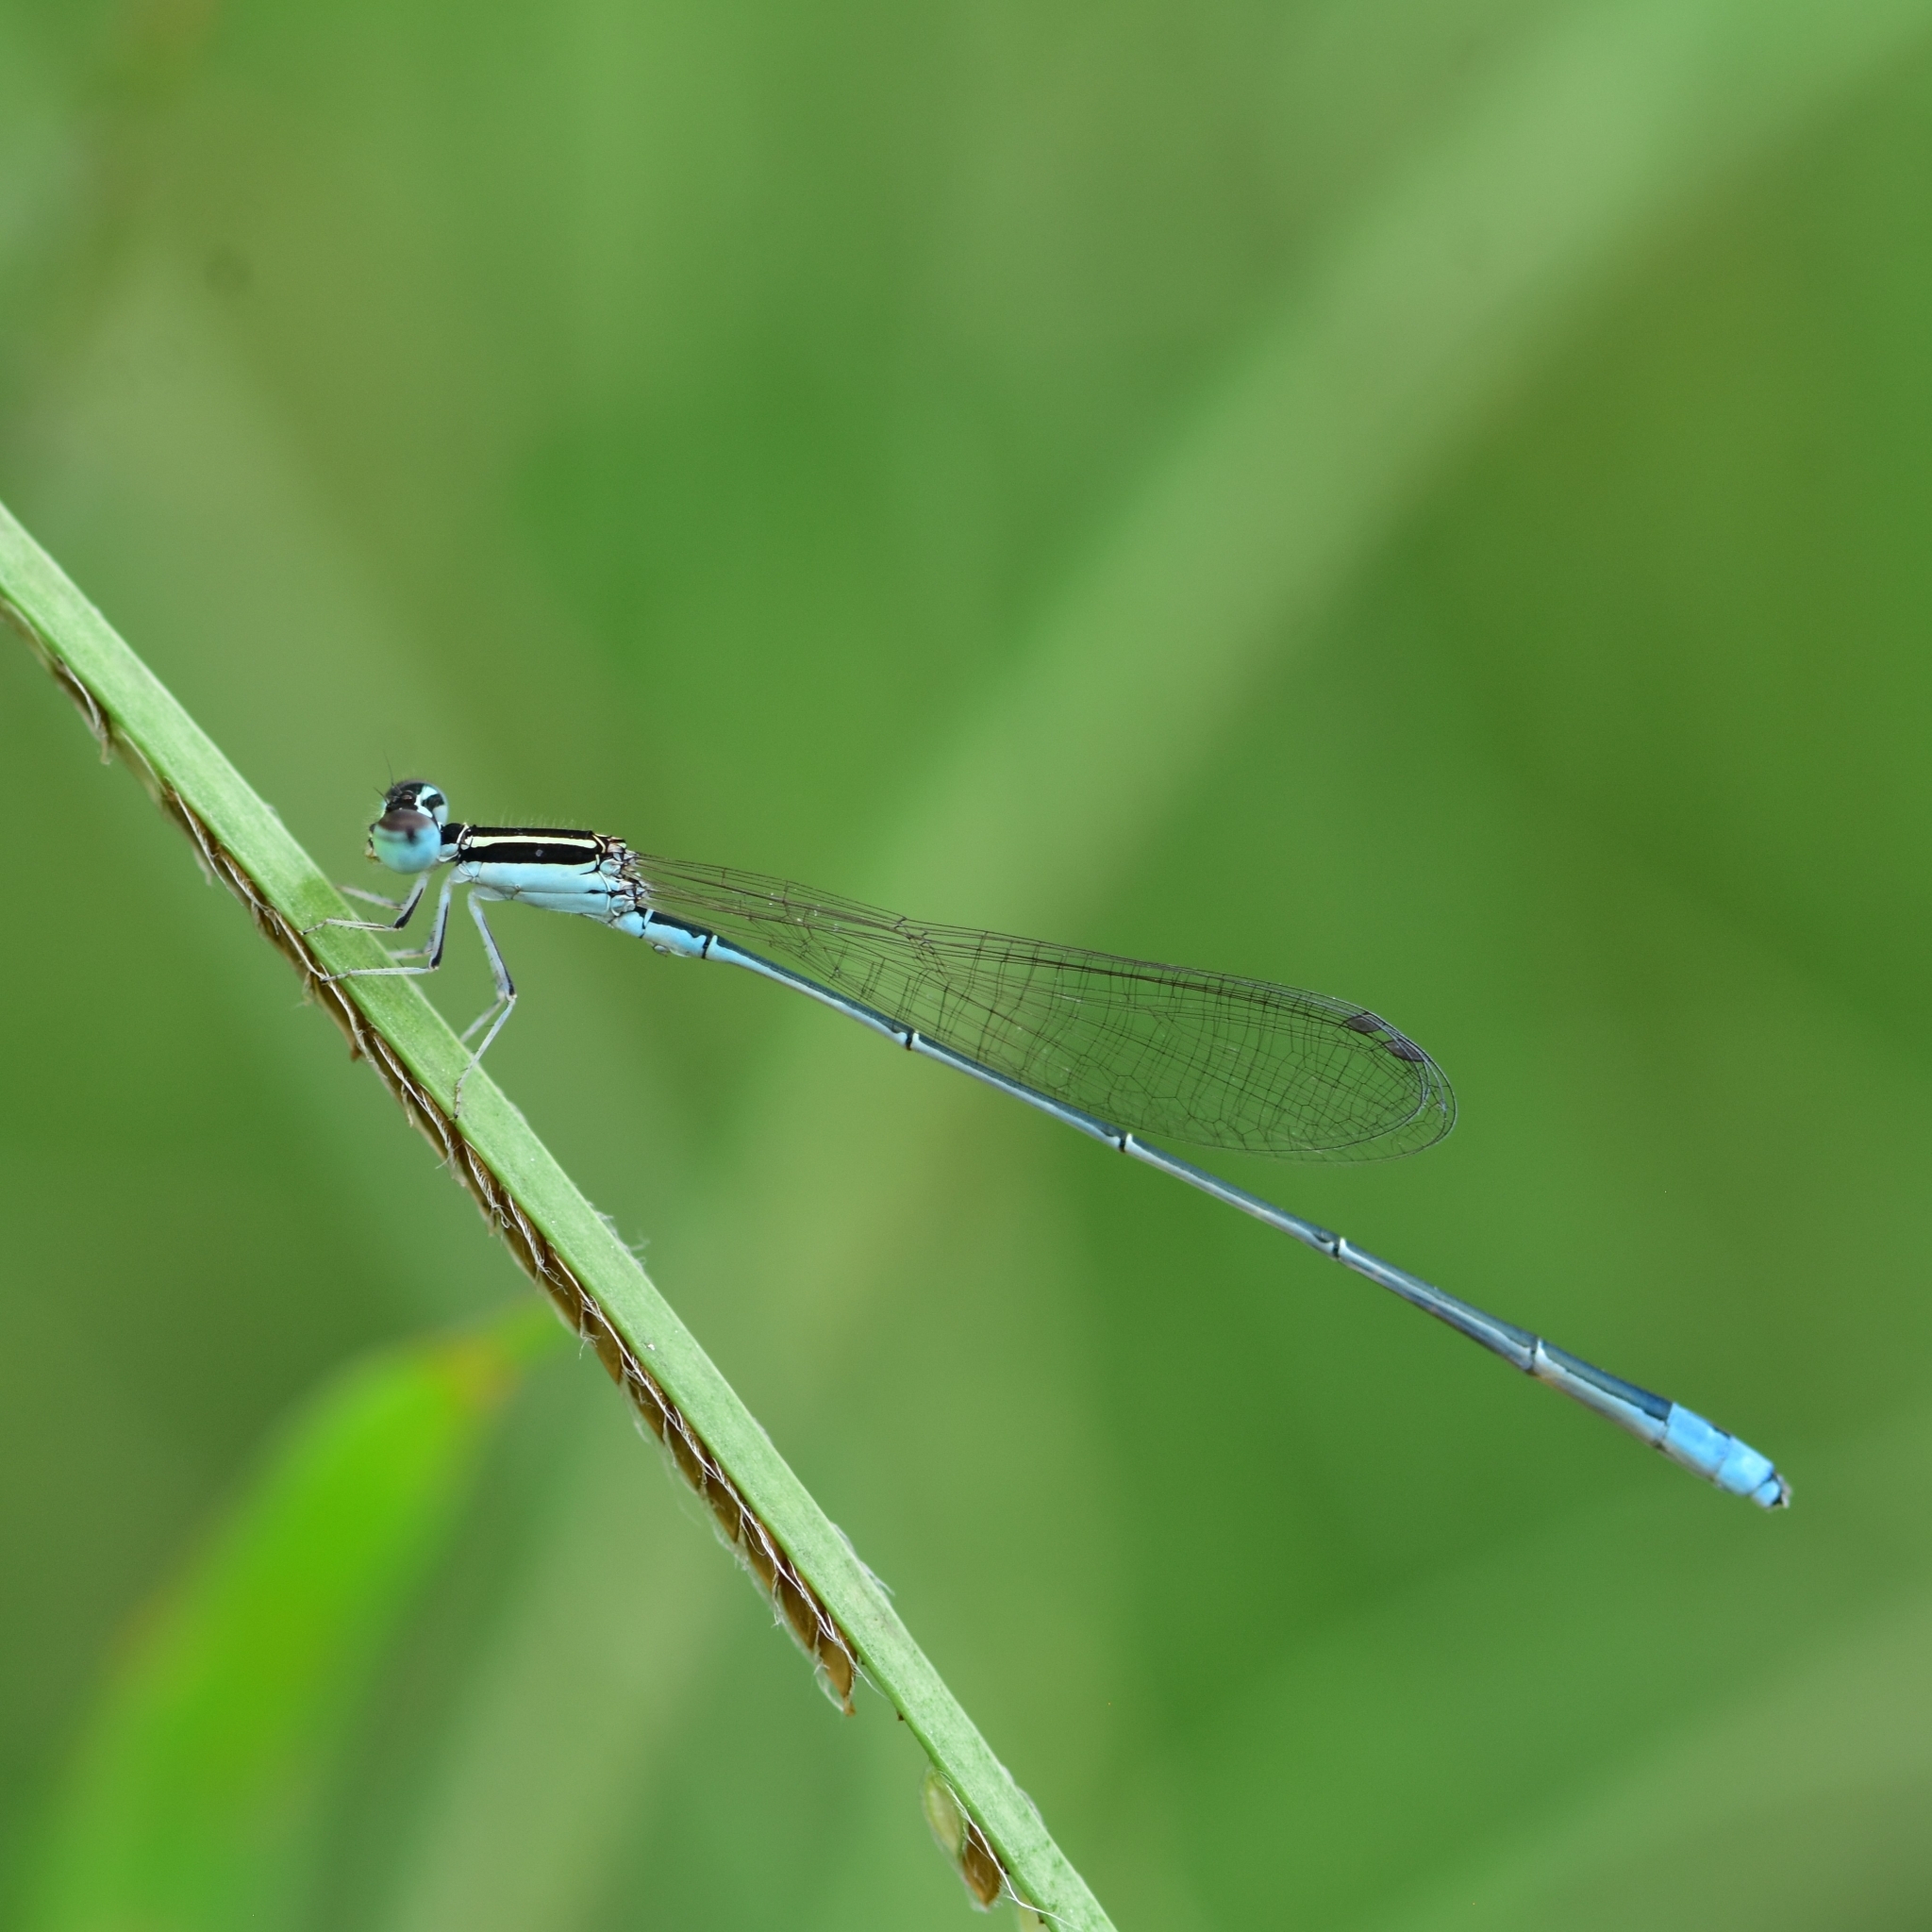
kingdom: Animalia
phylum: Arthropoda
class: Insecta
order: Odonata
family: Coenagrionidae
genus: Aciagrion
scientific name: Aciagrion occidentale
